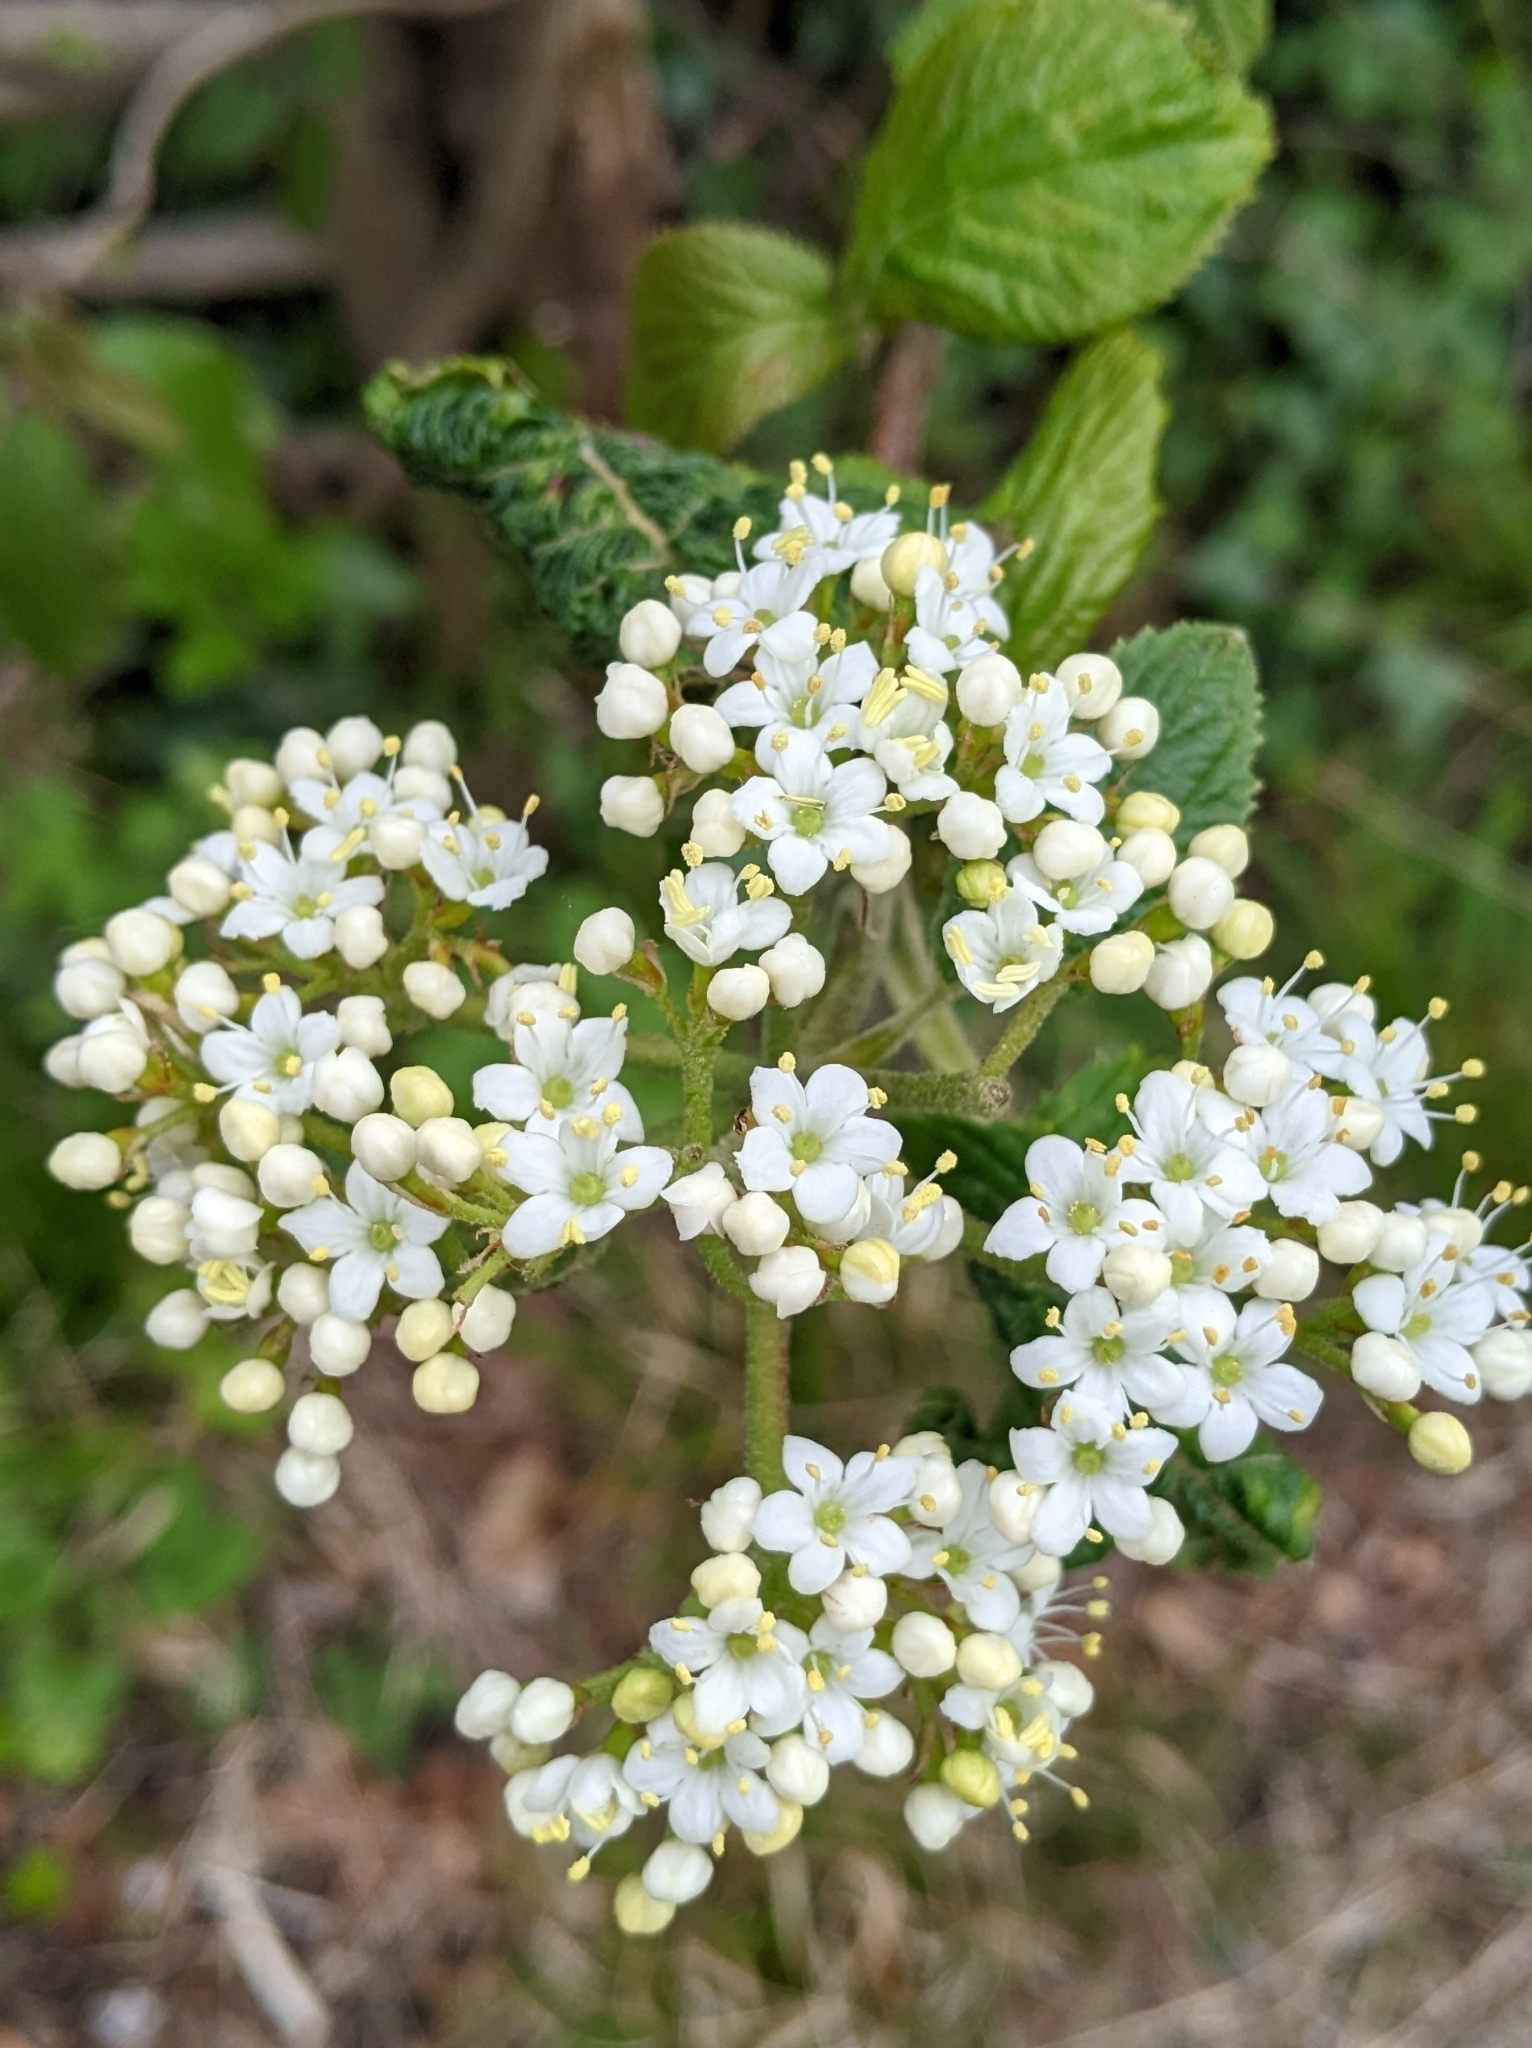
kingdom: Plantae
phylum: Tracheophyta
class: Magnoliopsida
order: Dipsacales
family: Viburnaceae
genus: Viburnum
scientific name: Viburnum lantana
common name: Wayfaring tree
